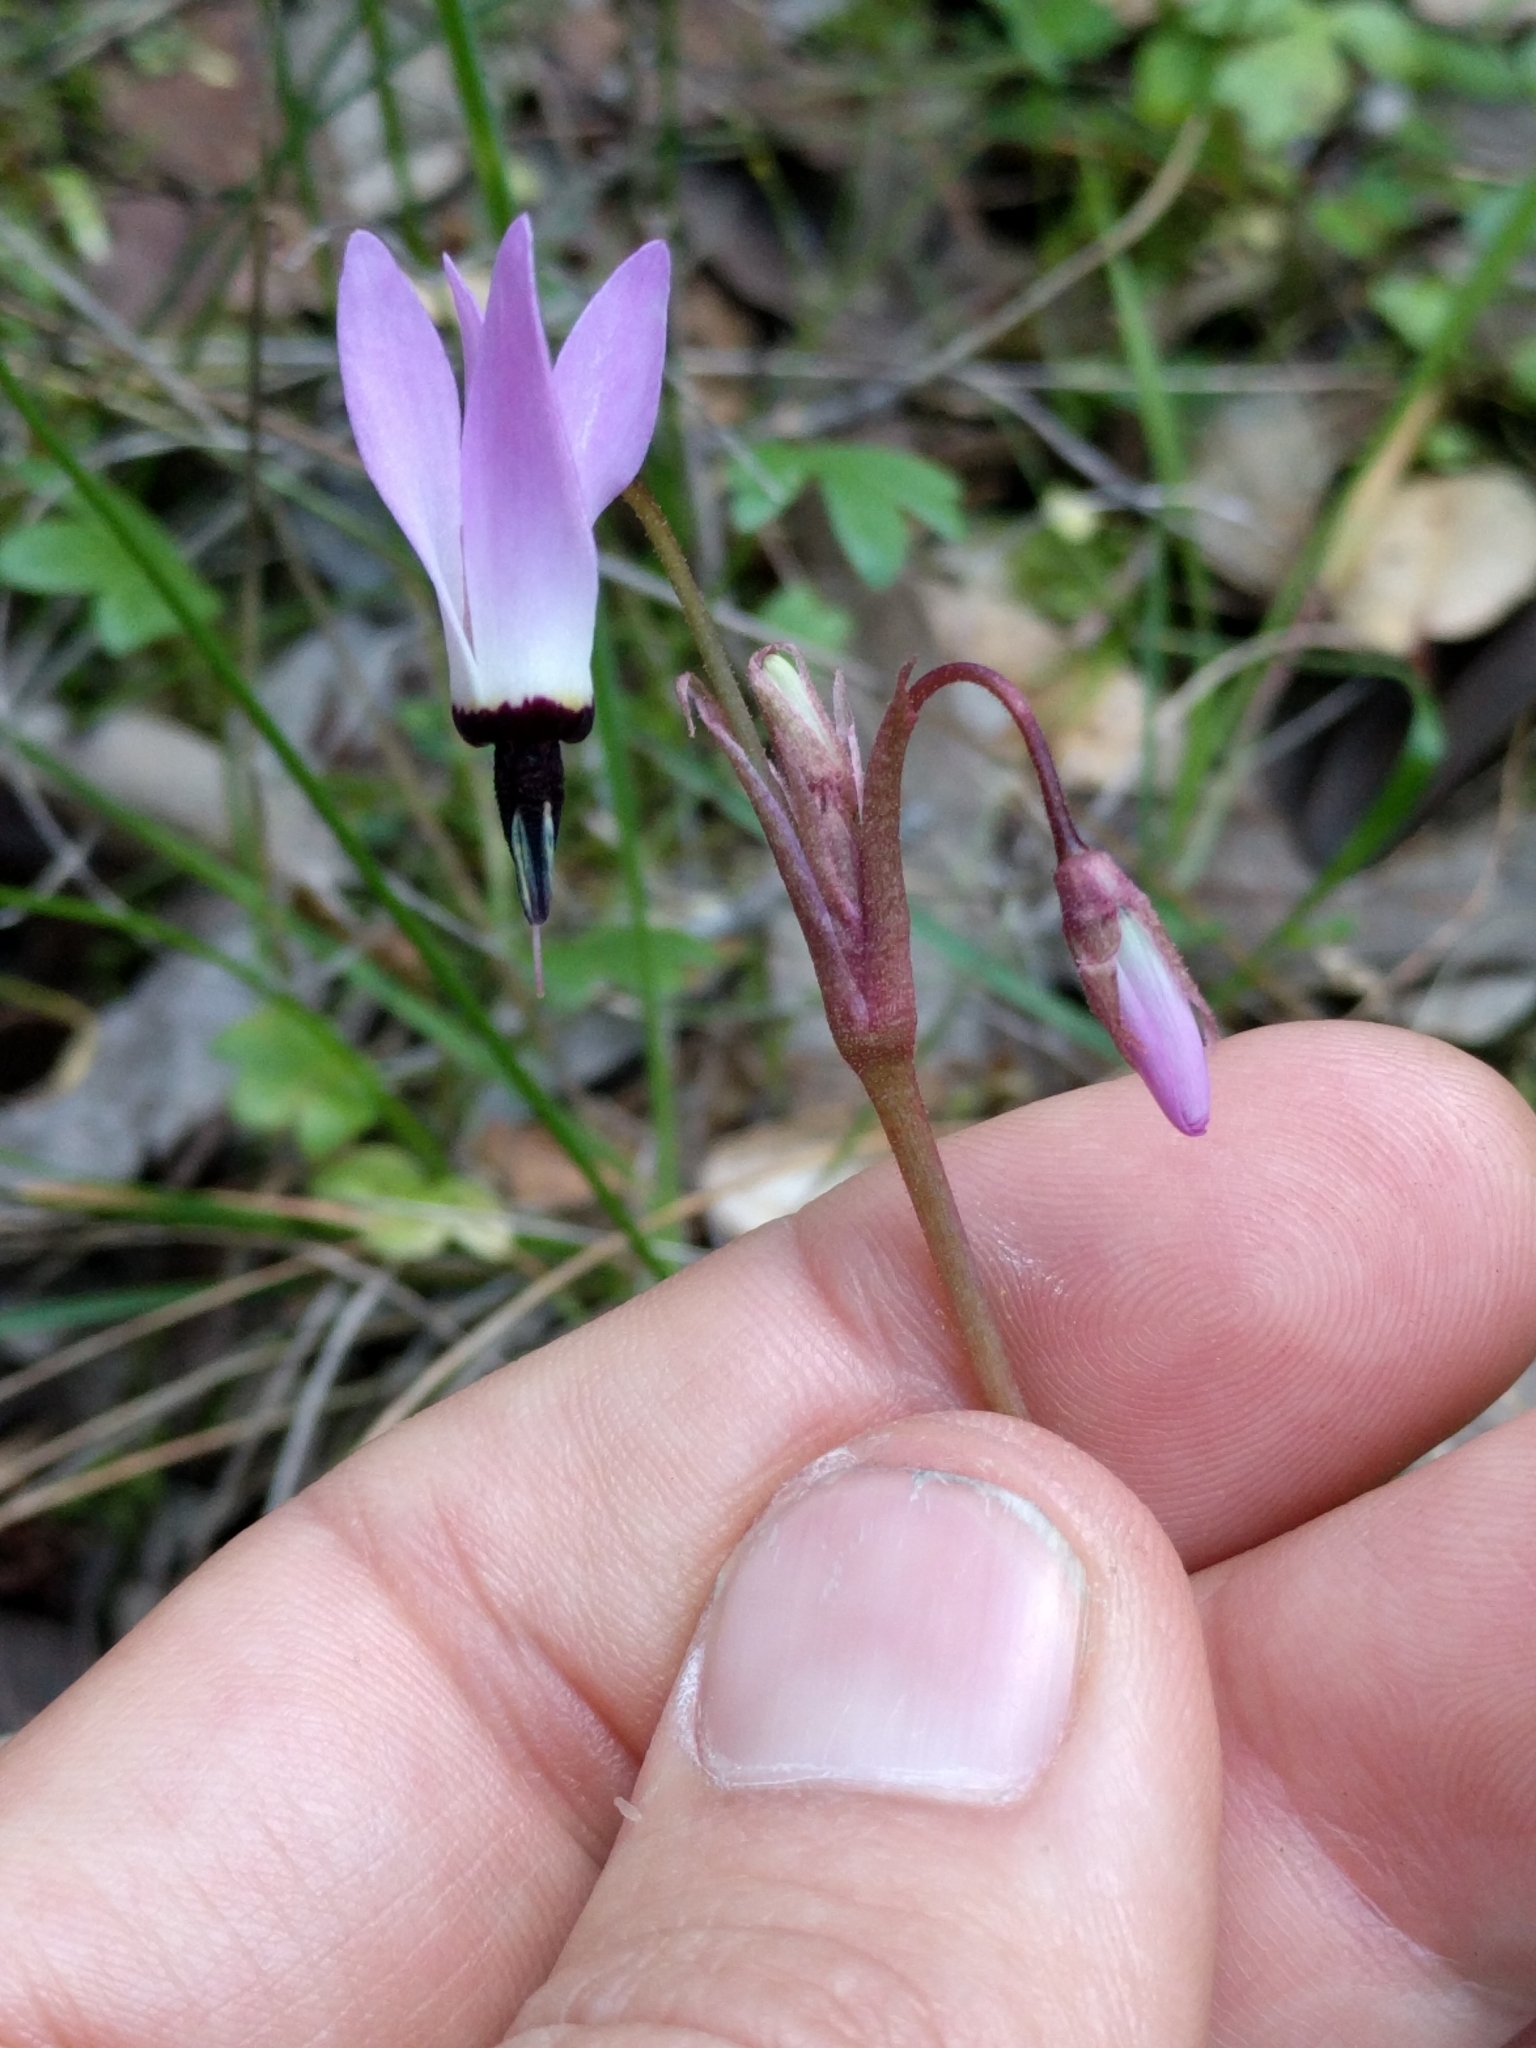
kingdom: Plantae
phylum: Tracheophyta
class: Magnoliopsida
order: Ericales
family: Primulaceae
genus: Dodecatheon
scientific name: Dodecatheon hendersonii
